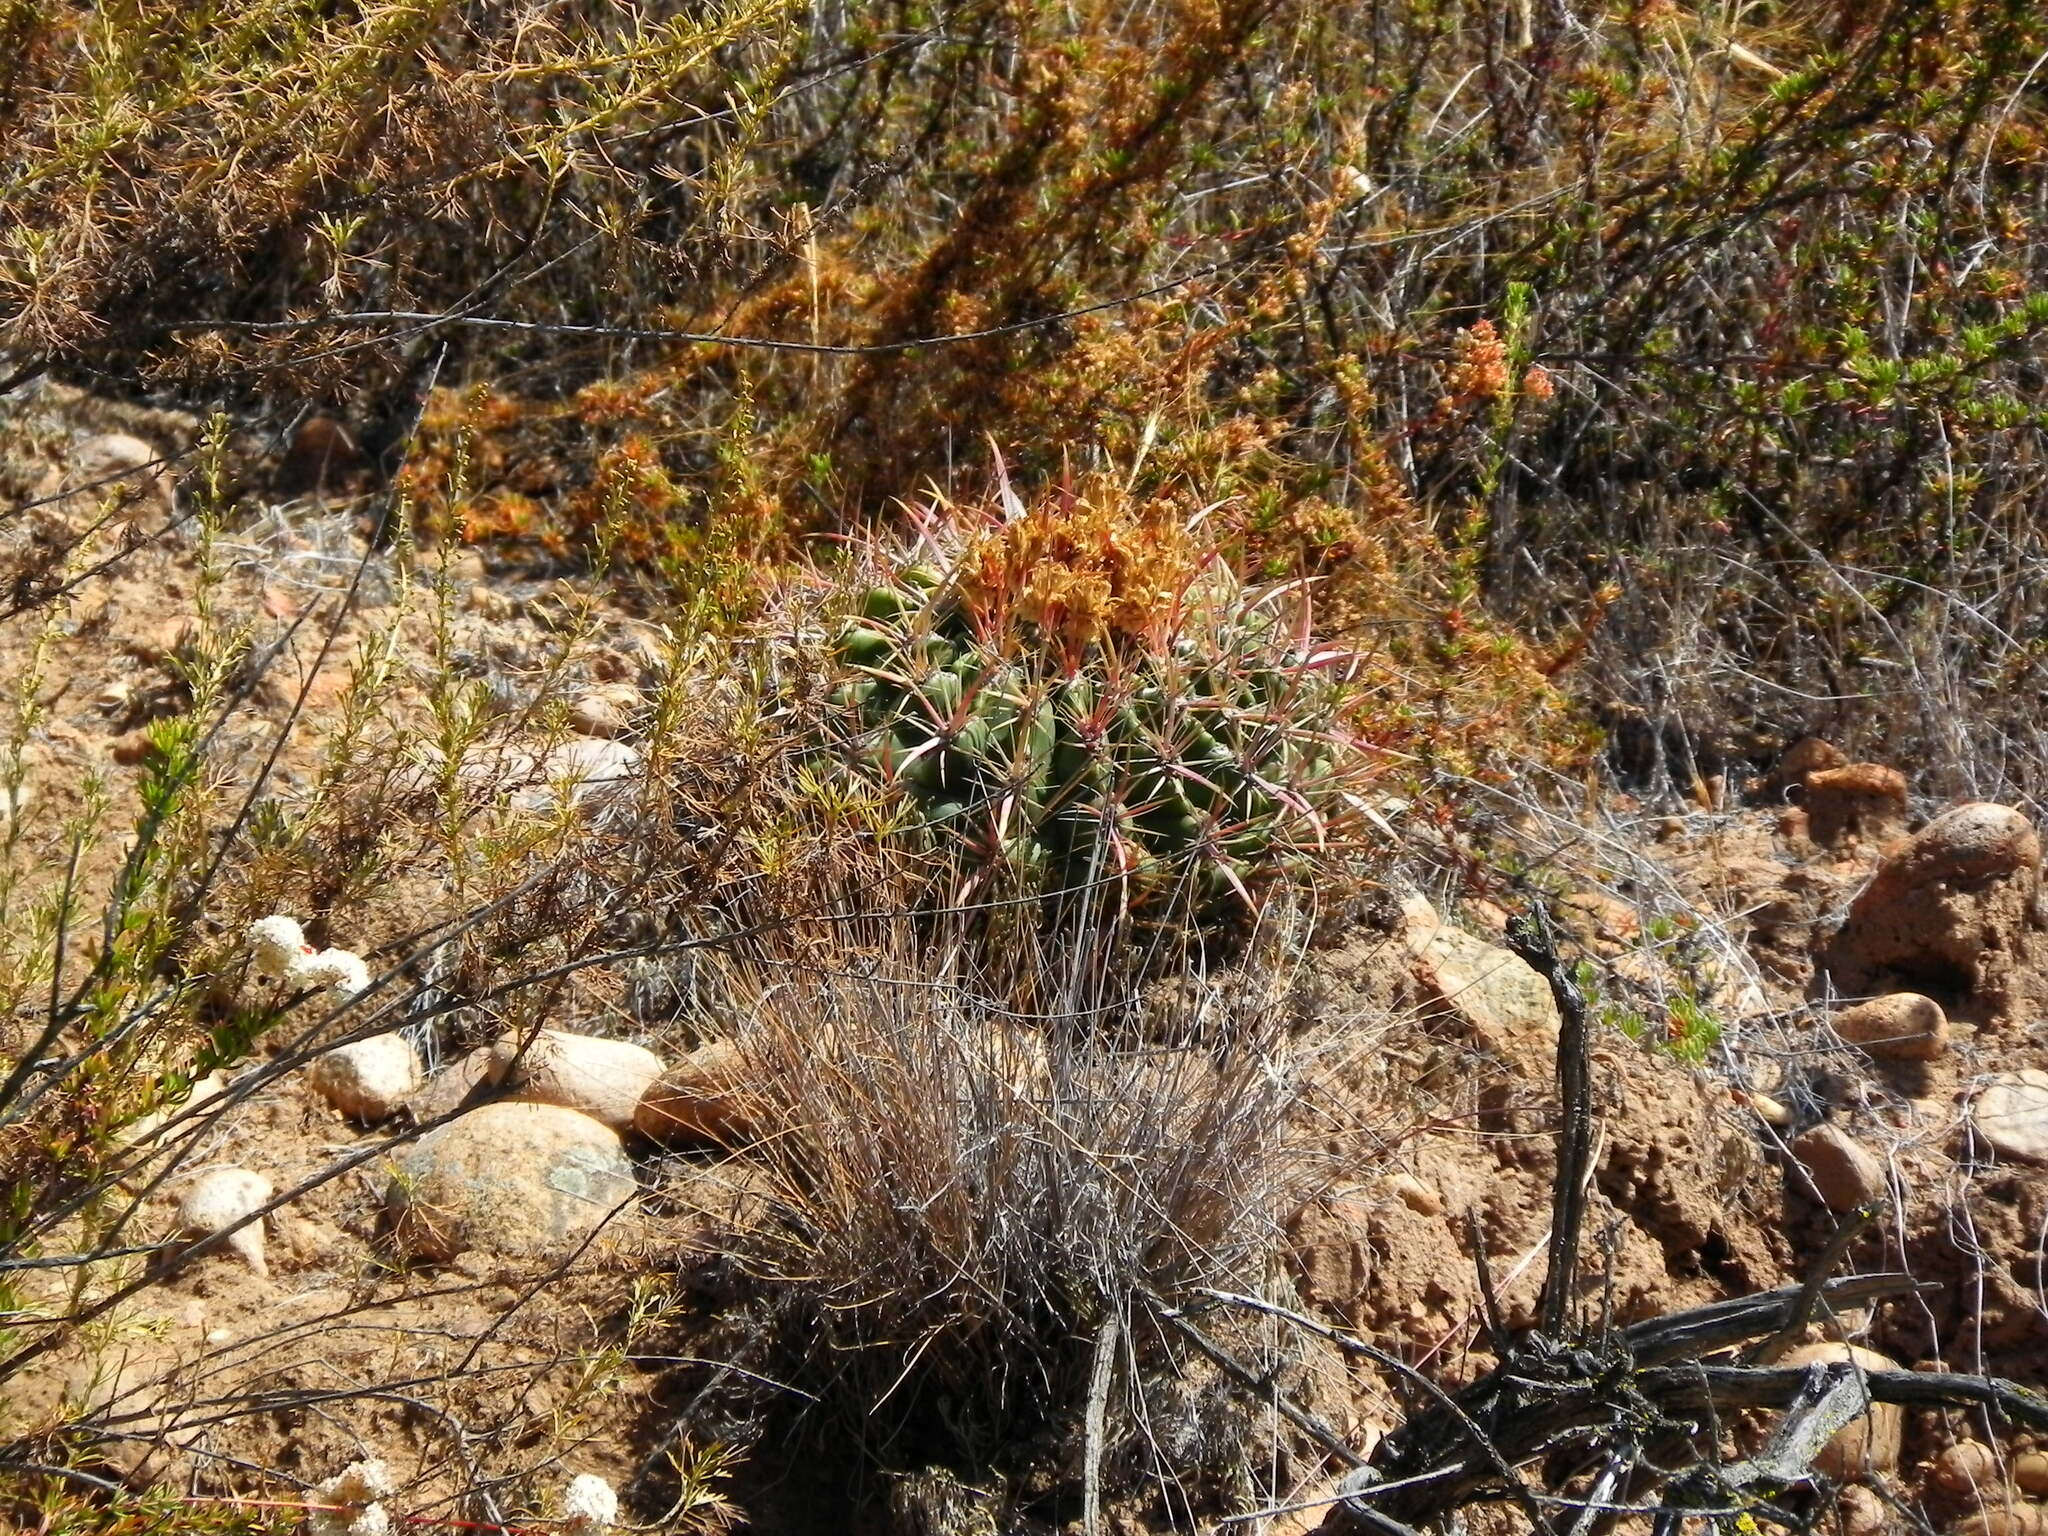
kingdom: Plantae
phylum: Tracheophyta
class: Magnoliopsida
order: Caryophyllales
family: Cactaceae
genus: Ferocactus
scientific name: Ferocactus viridescens
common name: San diego barrel cactus
